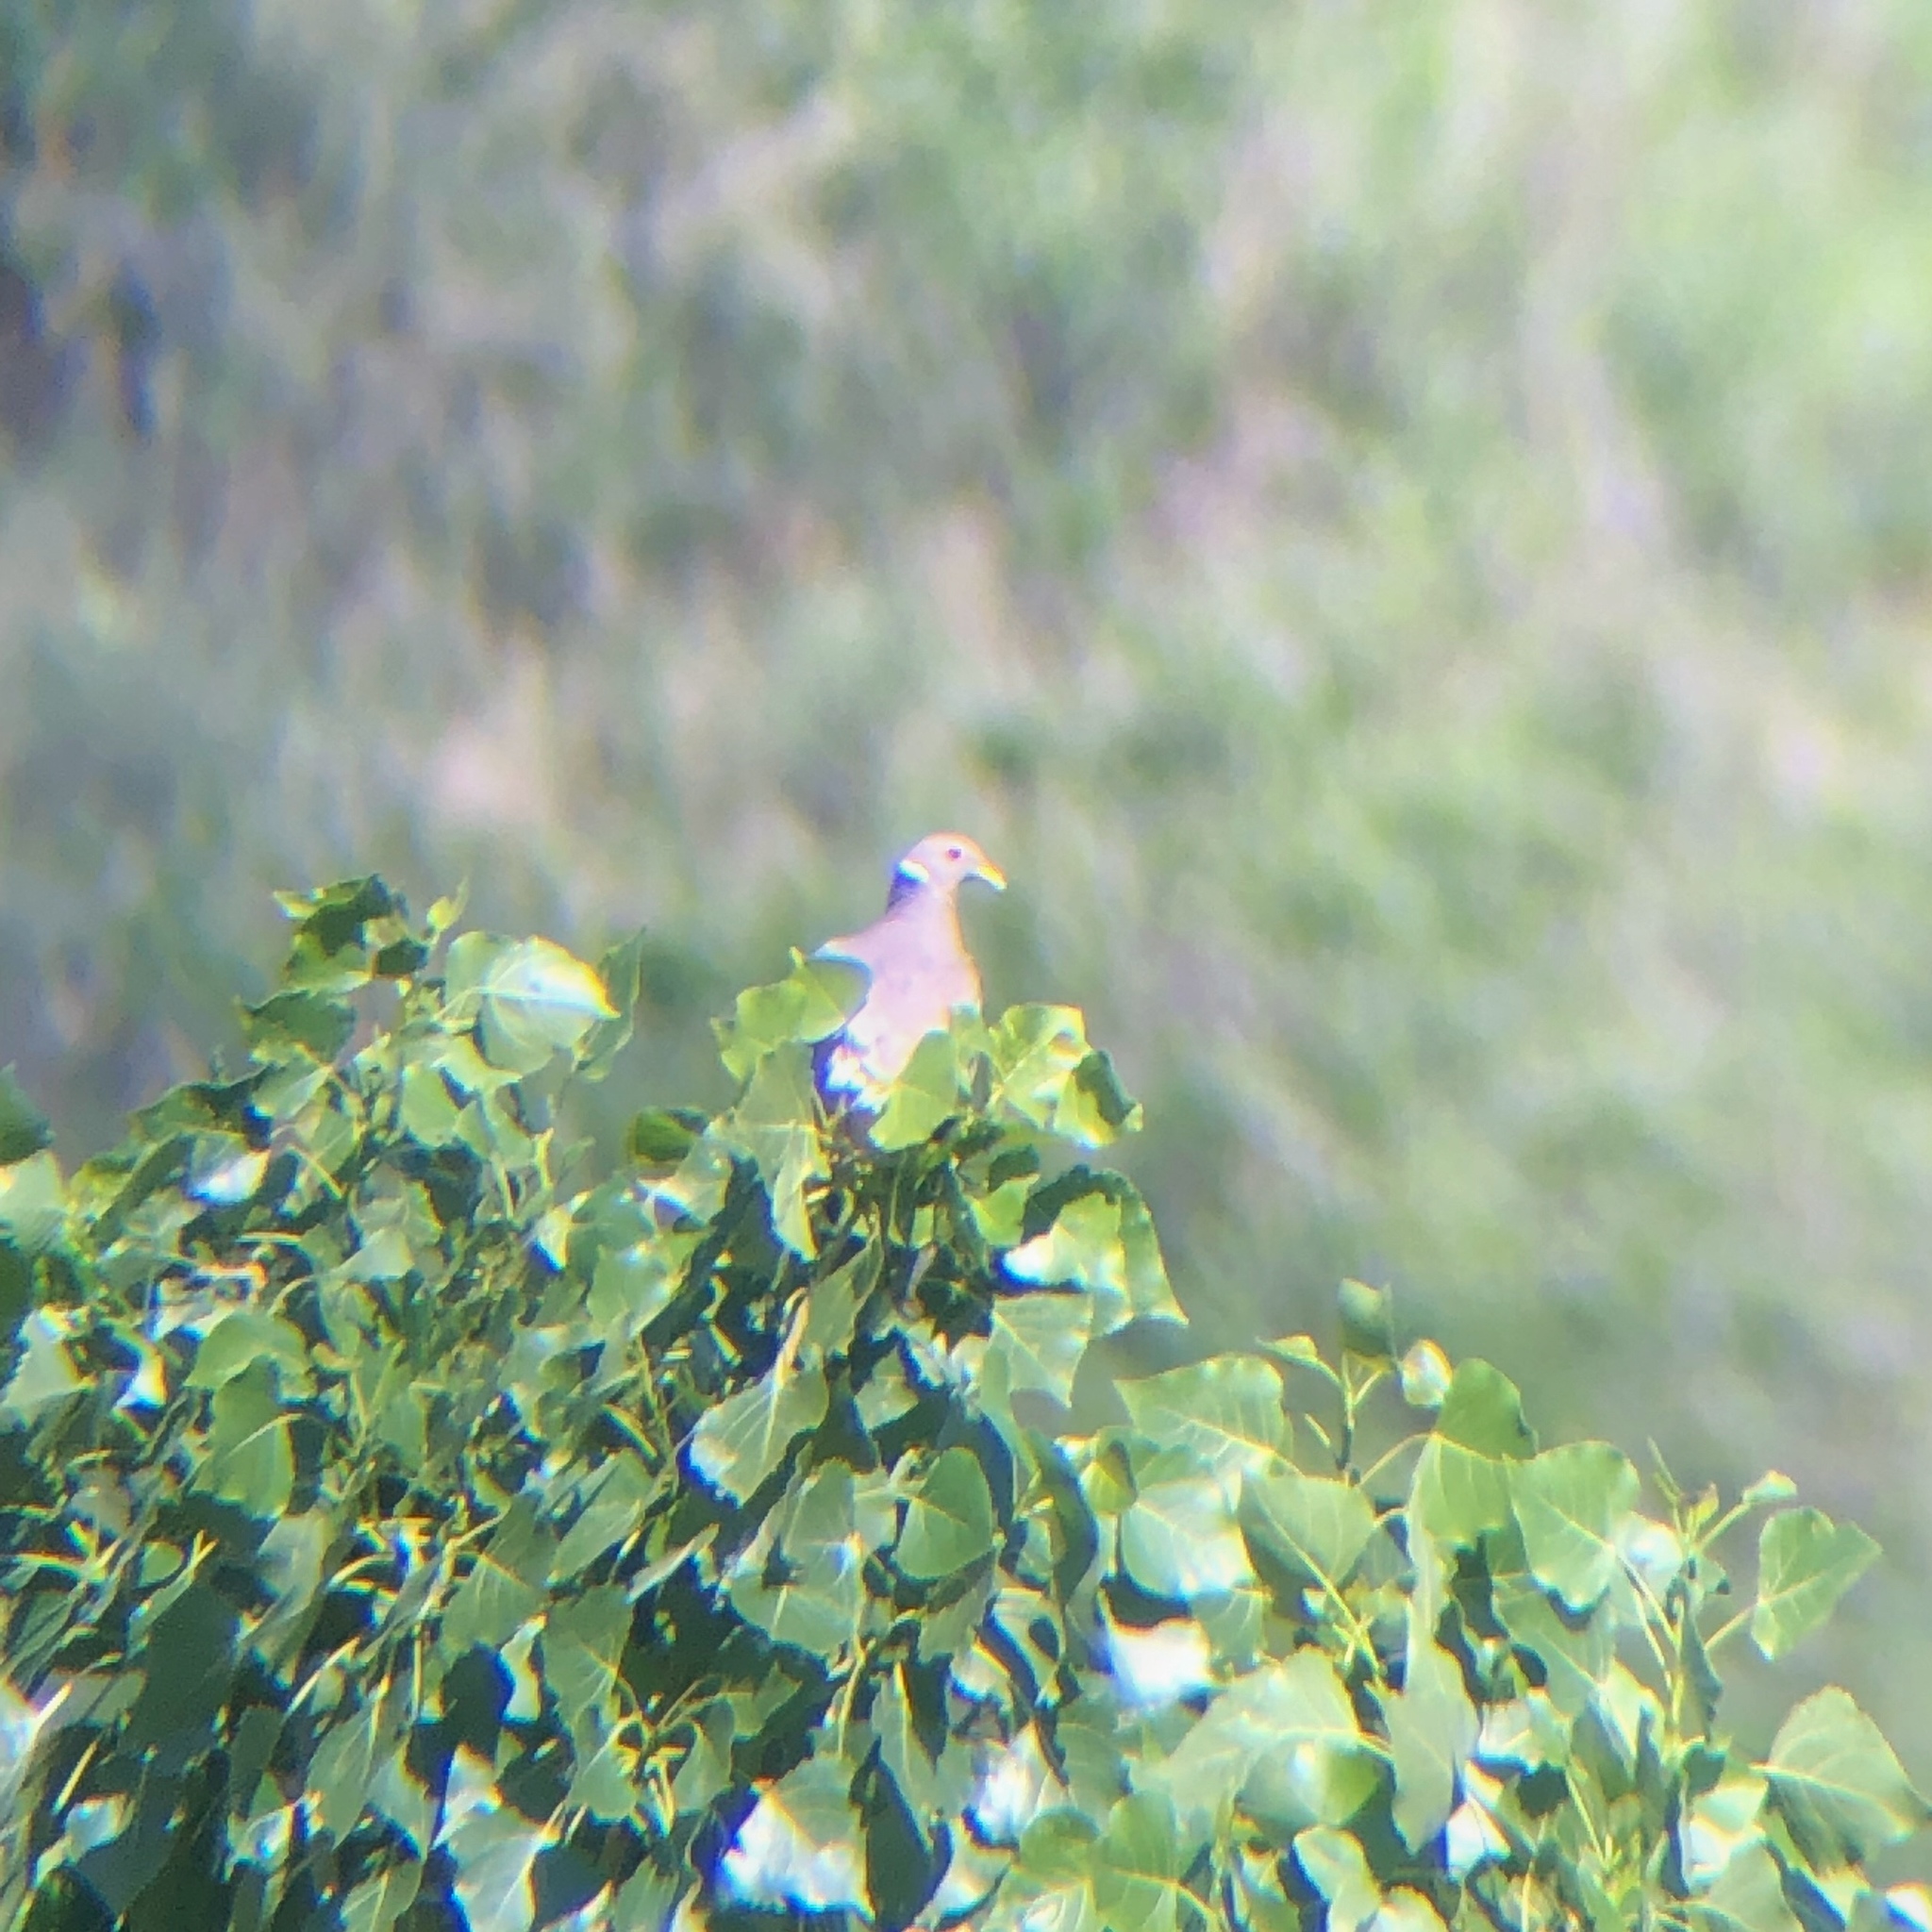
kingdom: Animalia
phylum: Chordata
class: Aves
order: Columbiformes
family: Columbidae
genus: Patagioenas
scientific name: Patagioenas fasciata
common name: Band-tailed pigeon
